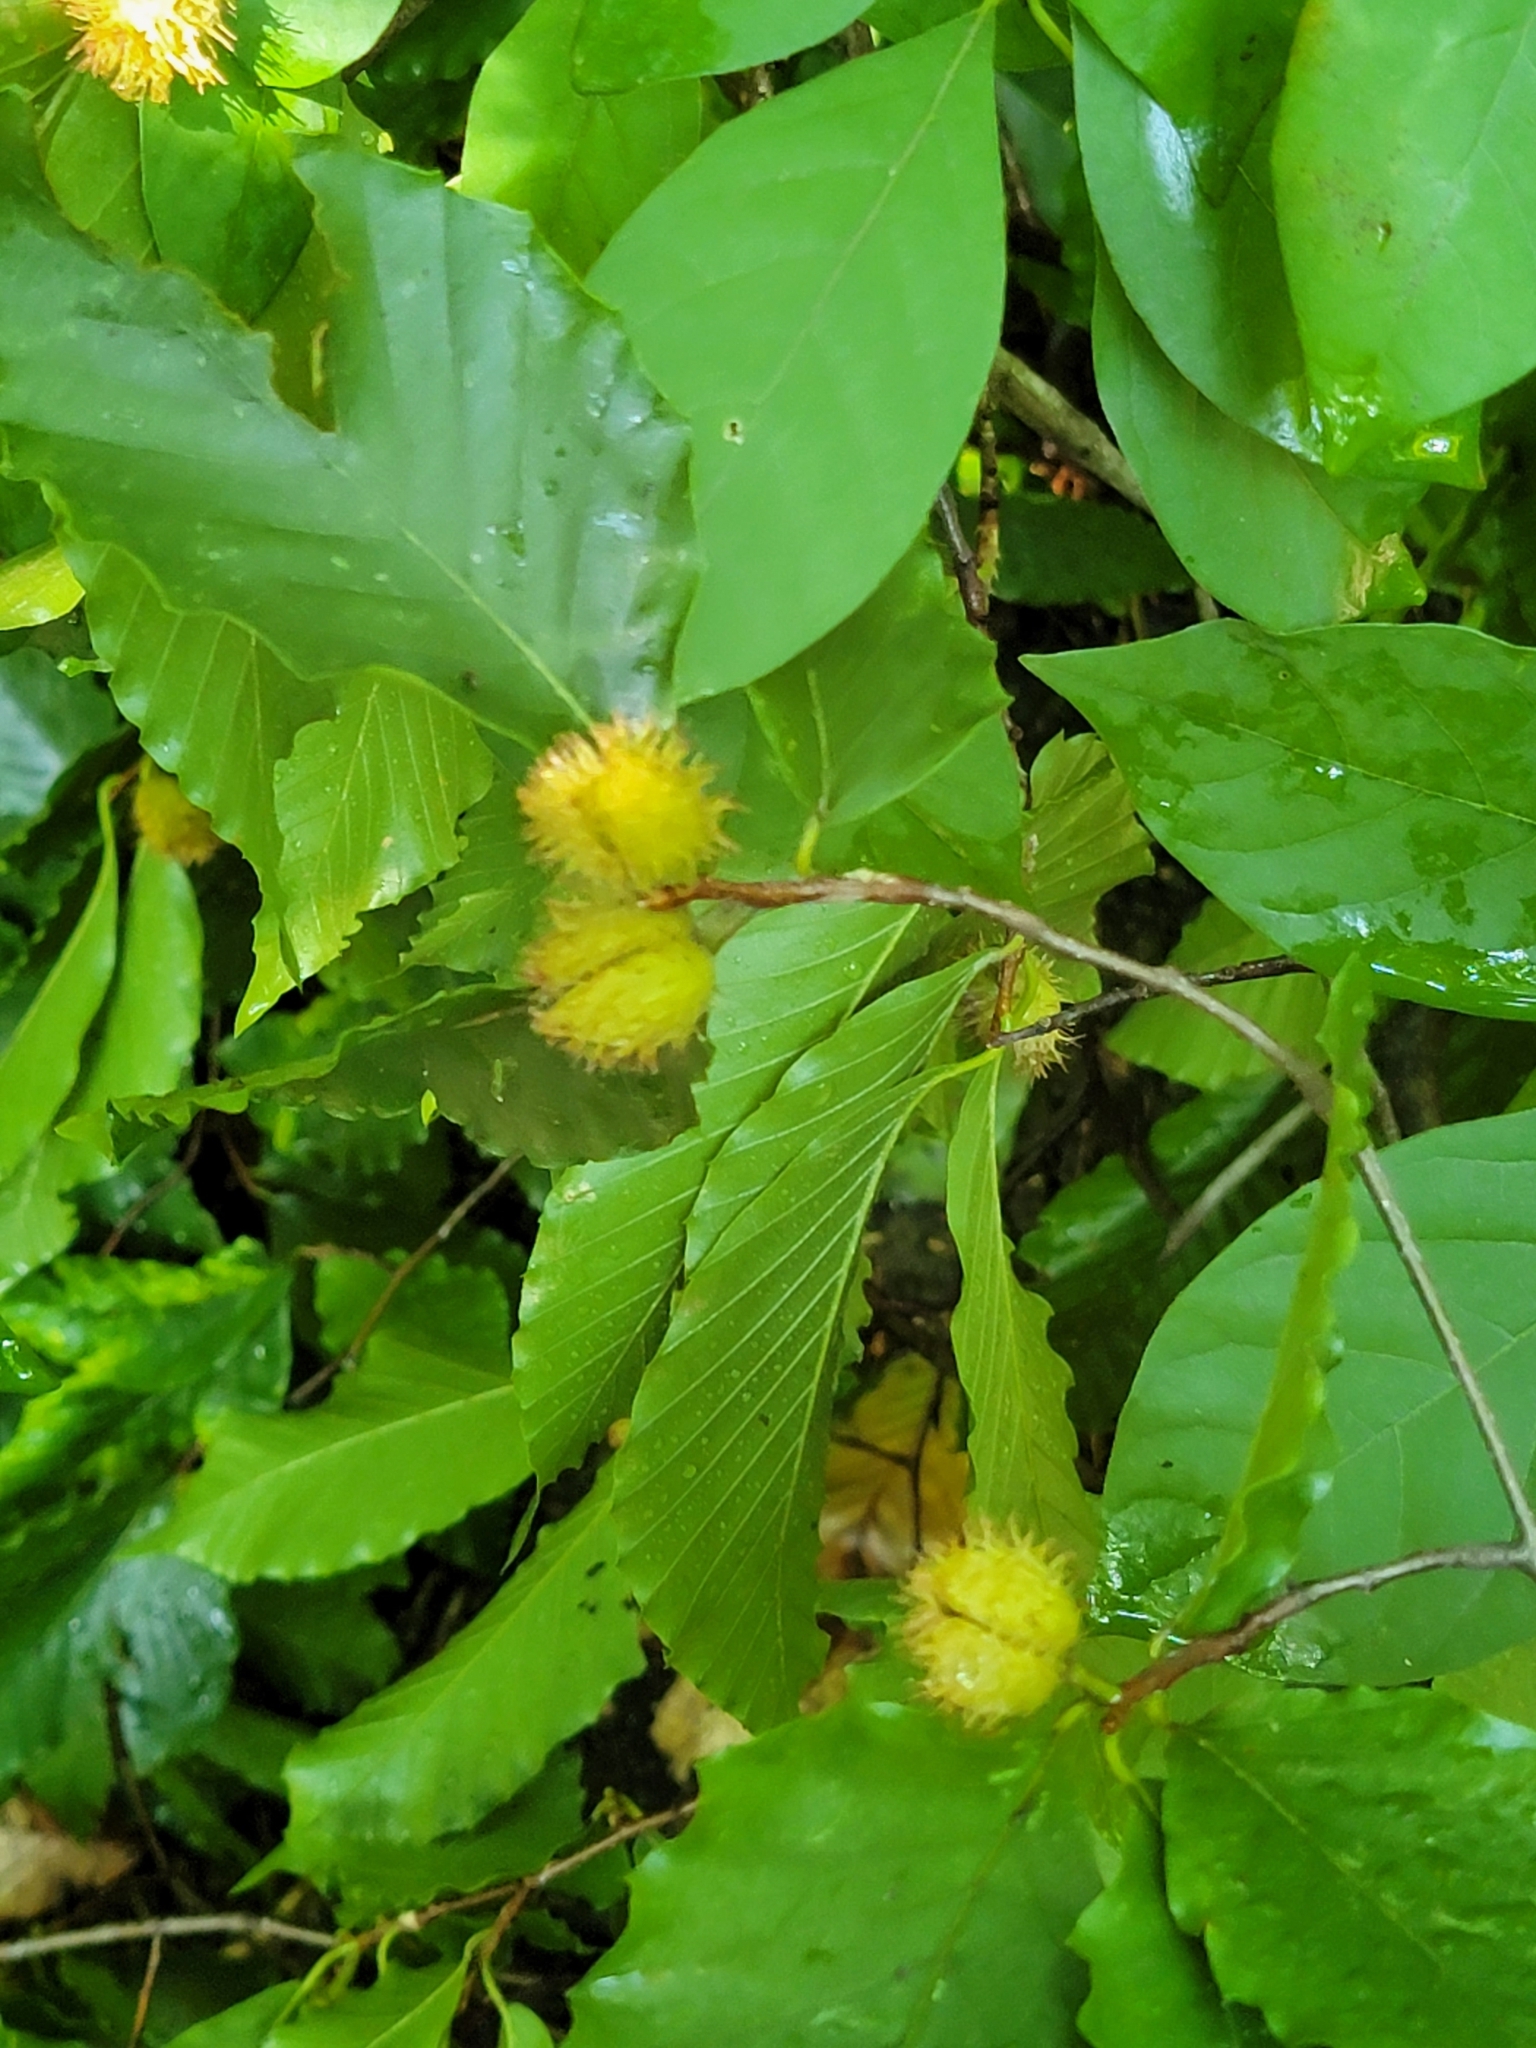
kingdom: Plantae
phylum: Tracheophyta
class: Magnoliopsida
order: Fagales
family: Fagaceae
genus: Fagus
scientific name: Fagus grandifolia
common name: American beech
